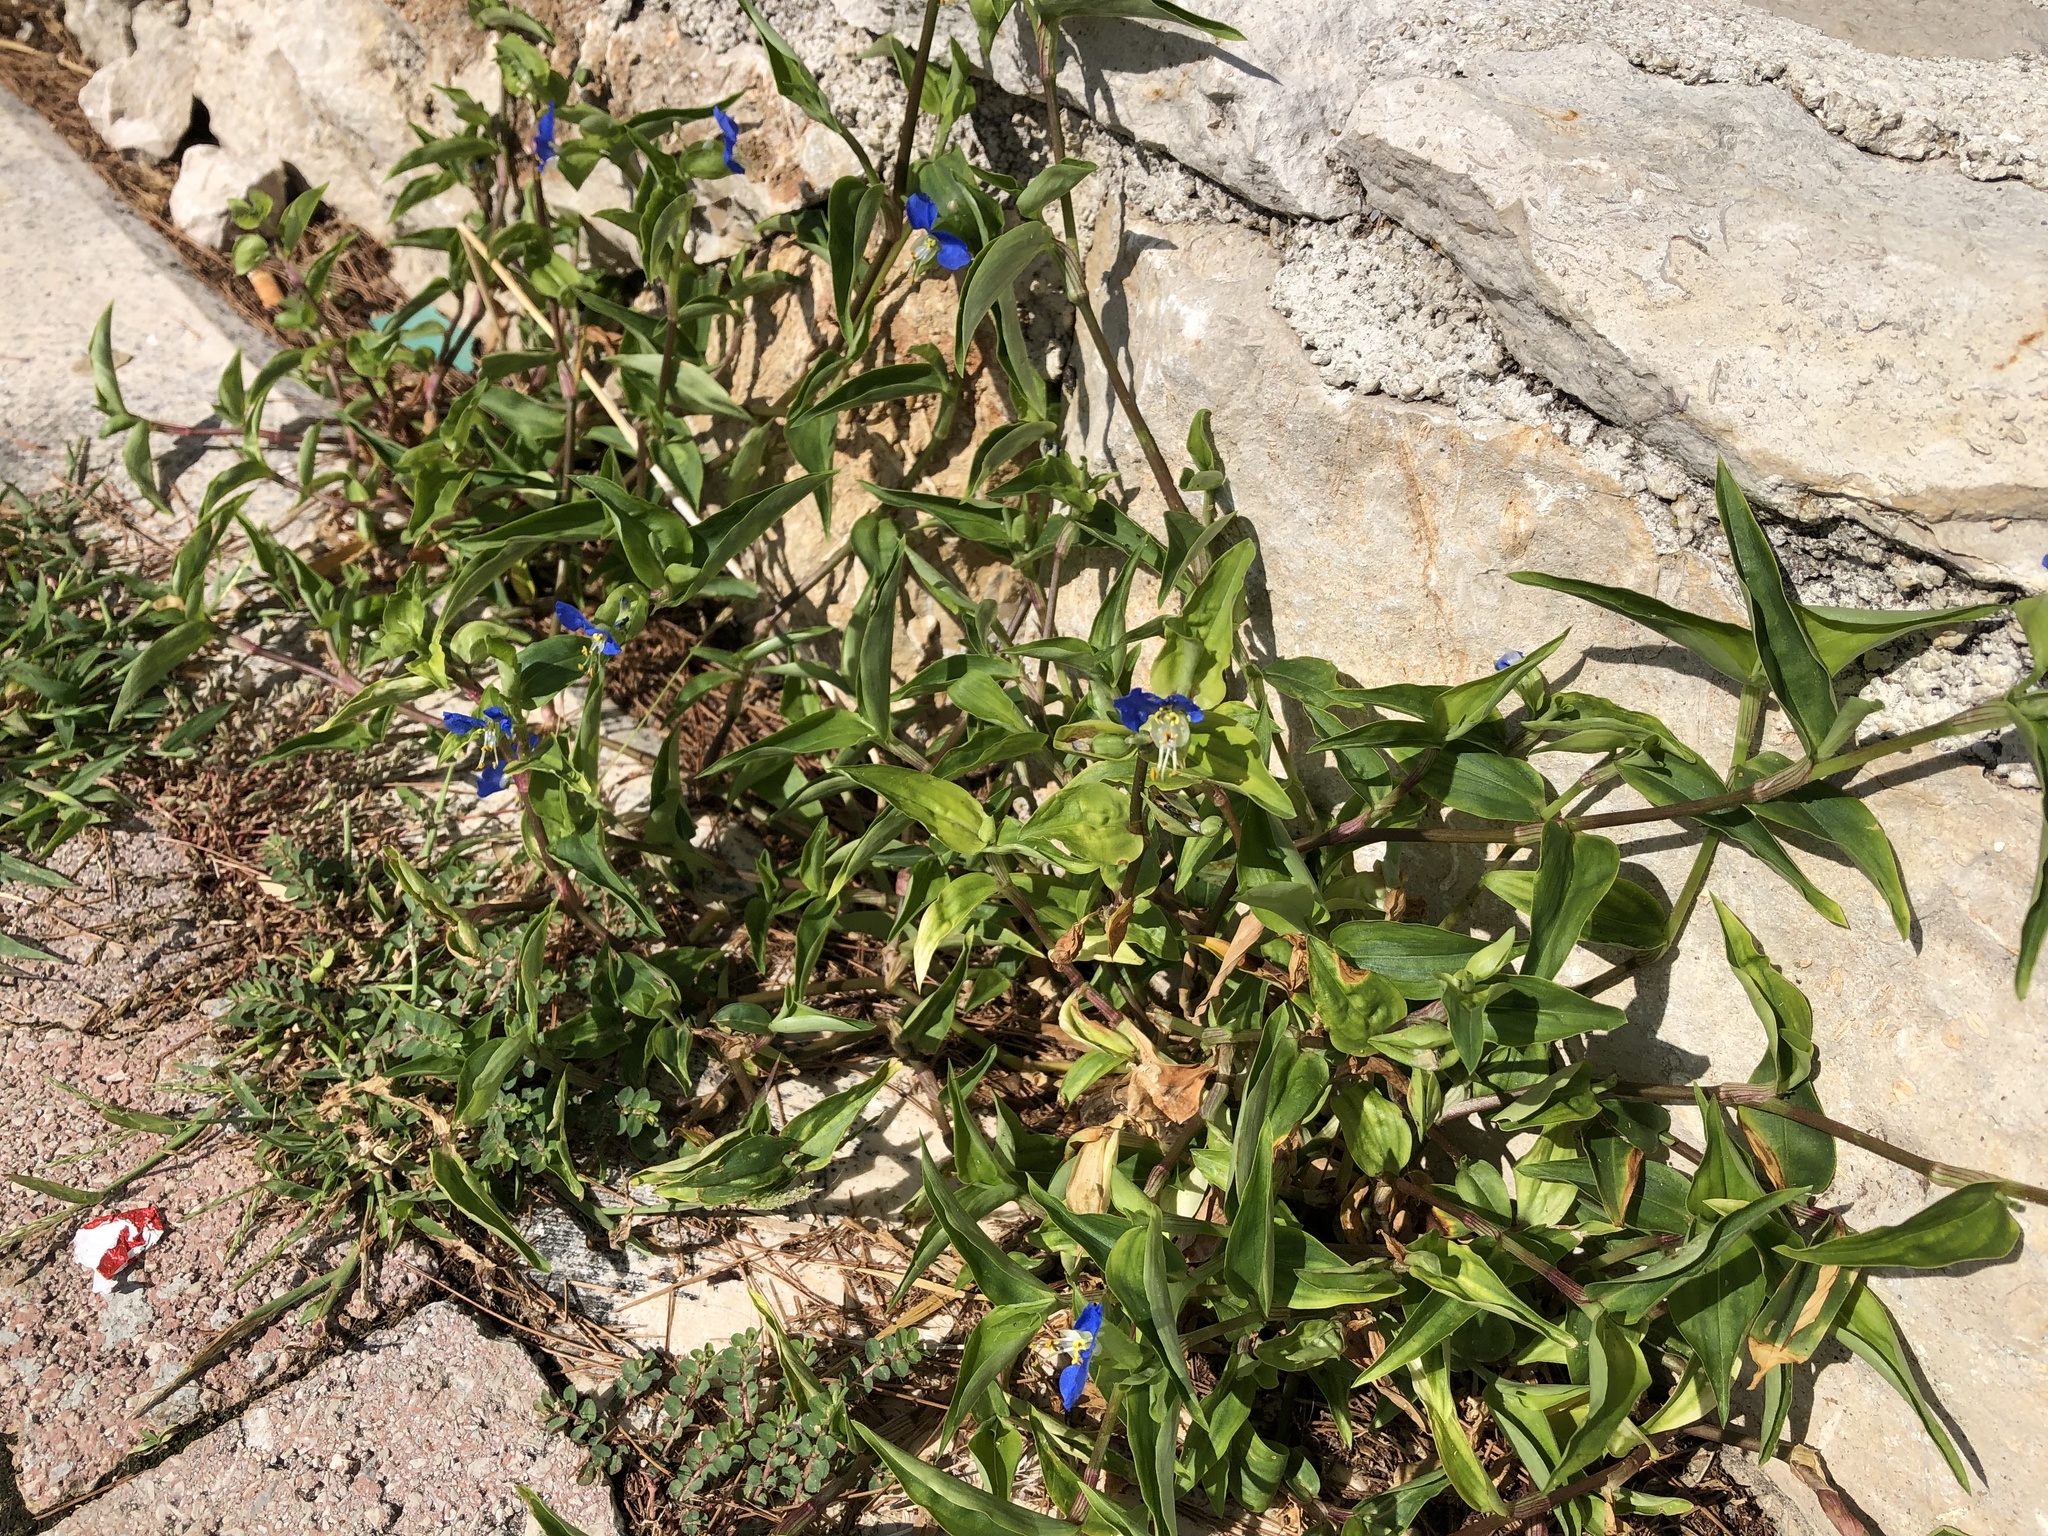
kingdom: Plantae
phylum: Tracheophyta
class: Liliopsida
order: Commelinales
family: Commelinaceae
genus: Commelina
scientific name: Commelina communis
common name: Asiatic dayflower
